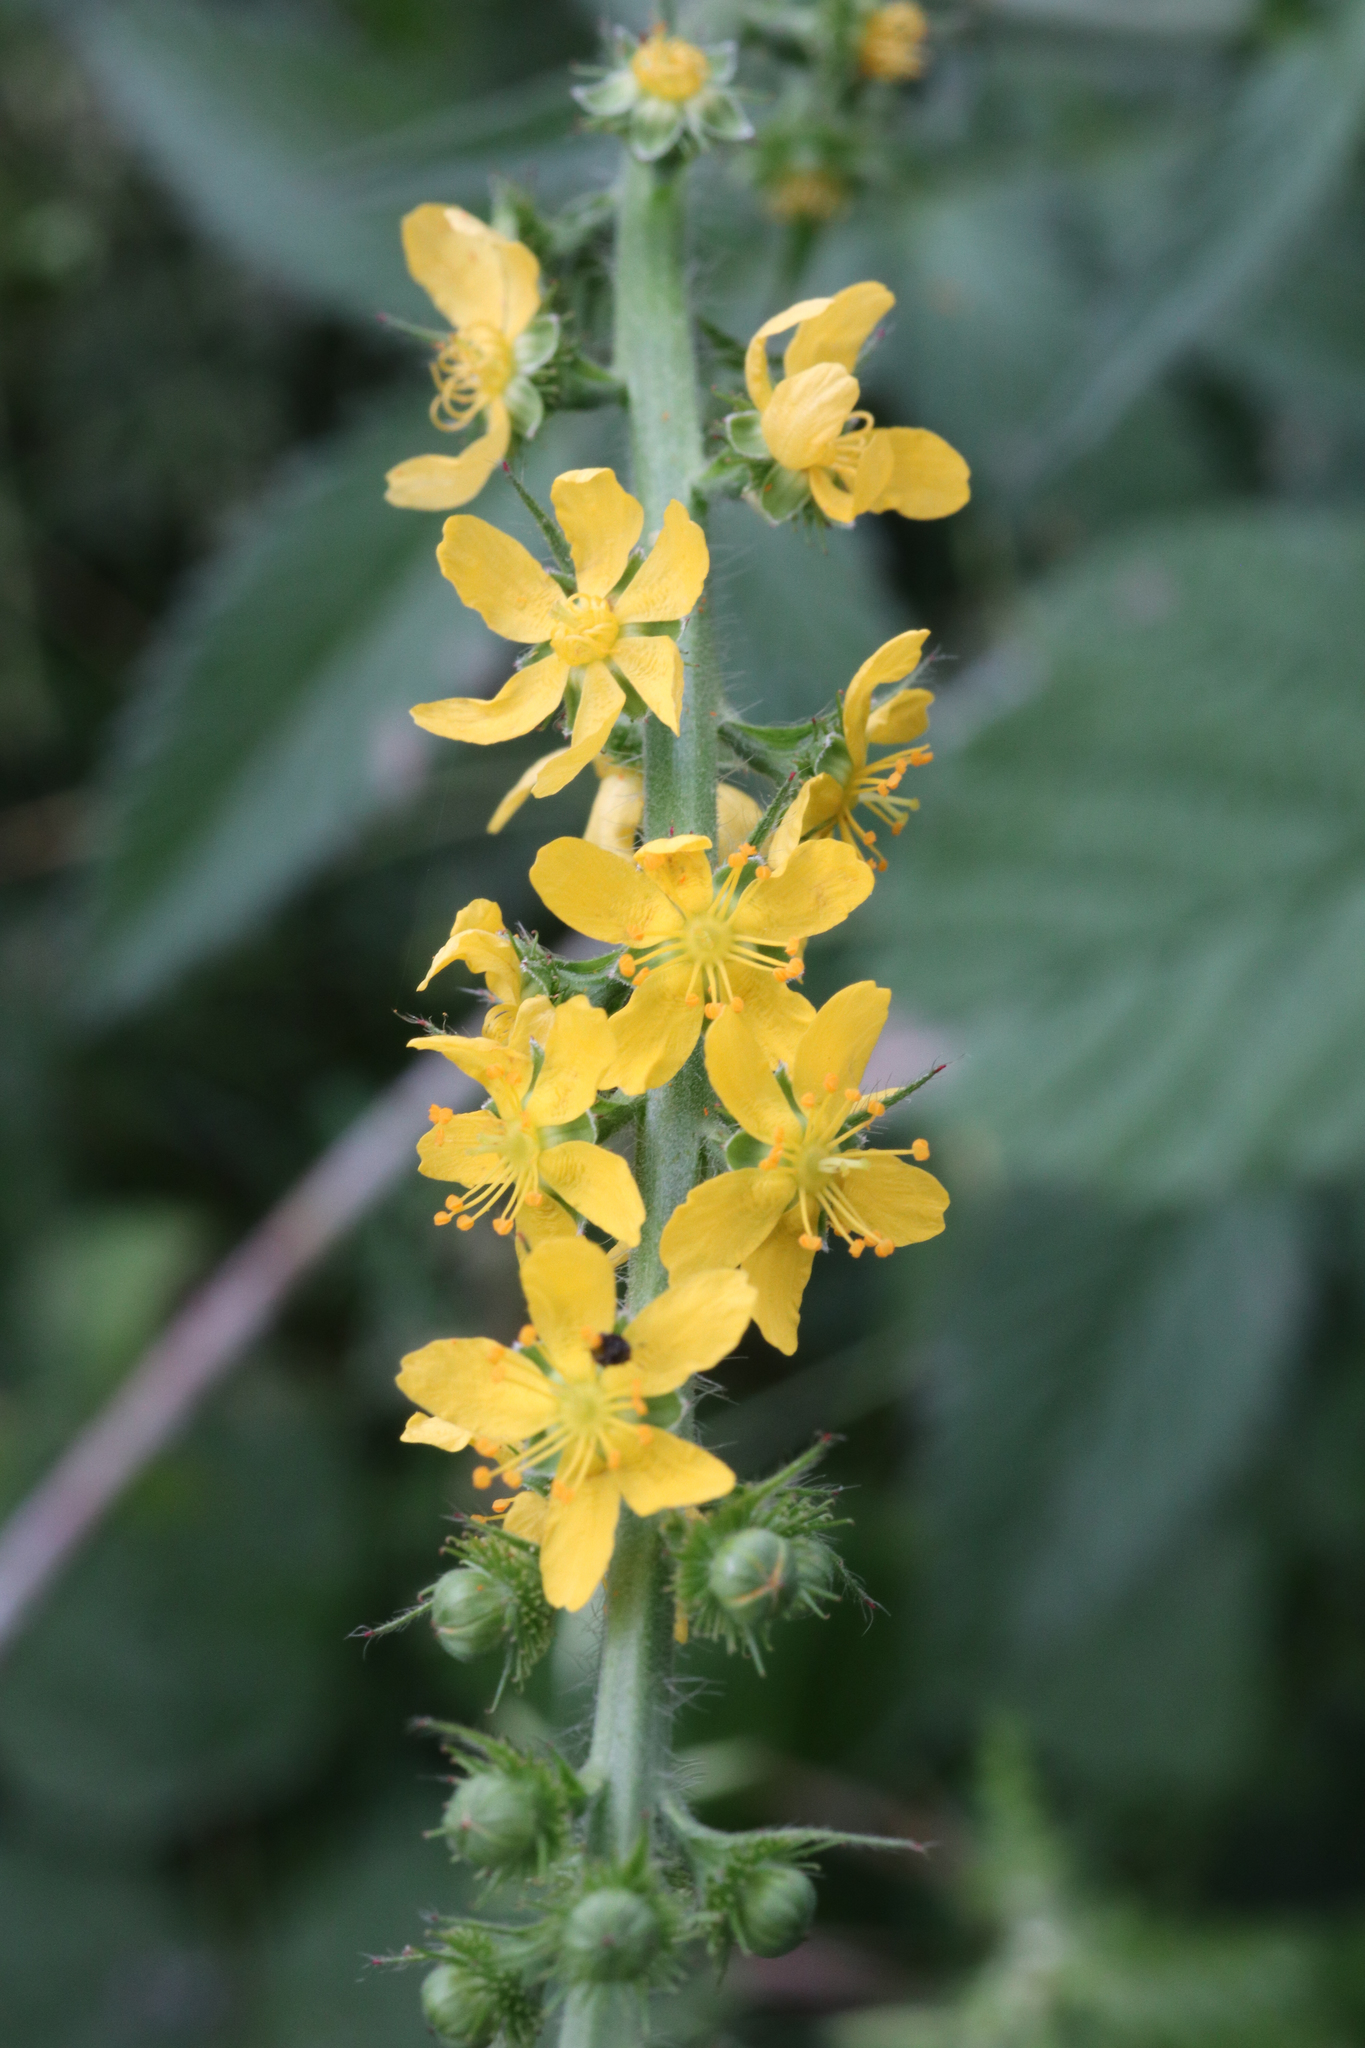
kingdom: Plantae
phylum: Tracheophyta
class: Magnoliopsida
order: Rosales
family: Rosaceae
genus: Agrimonia
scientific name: Agrimonia eupatoria
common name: Agrimony
